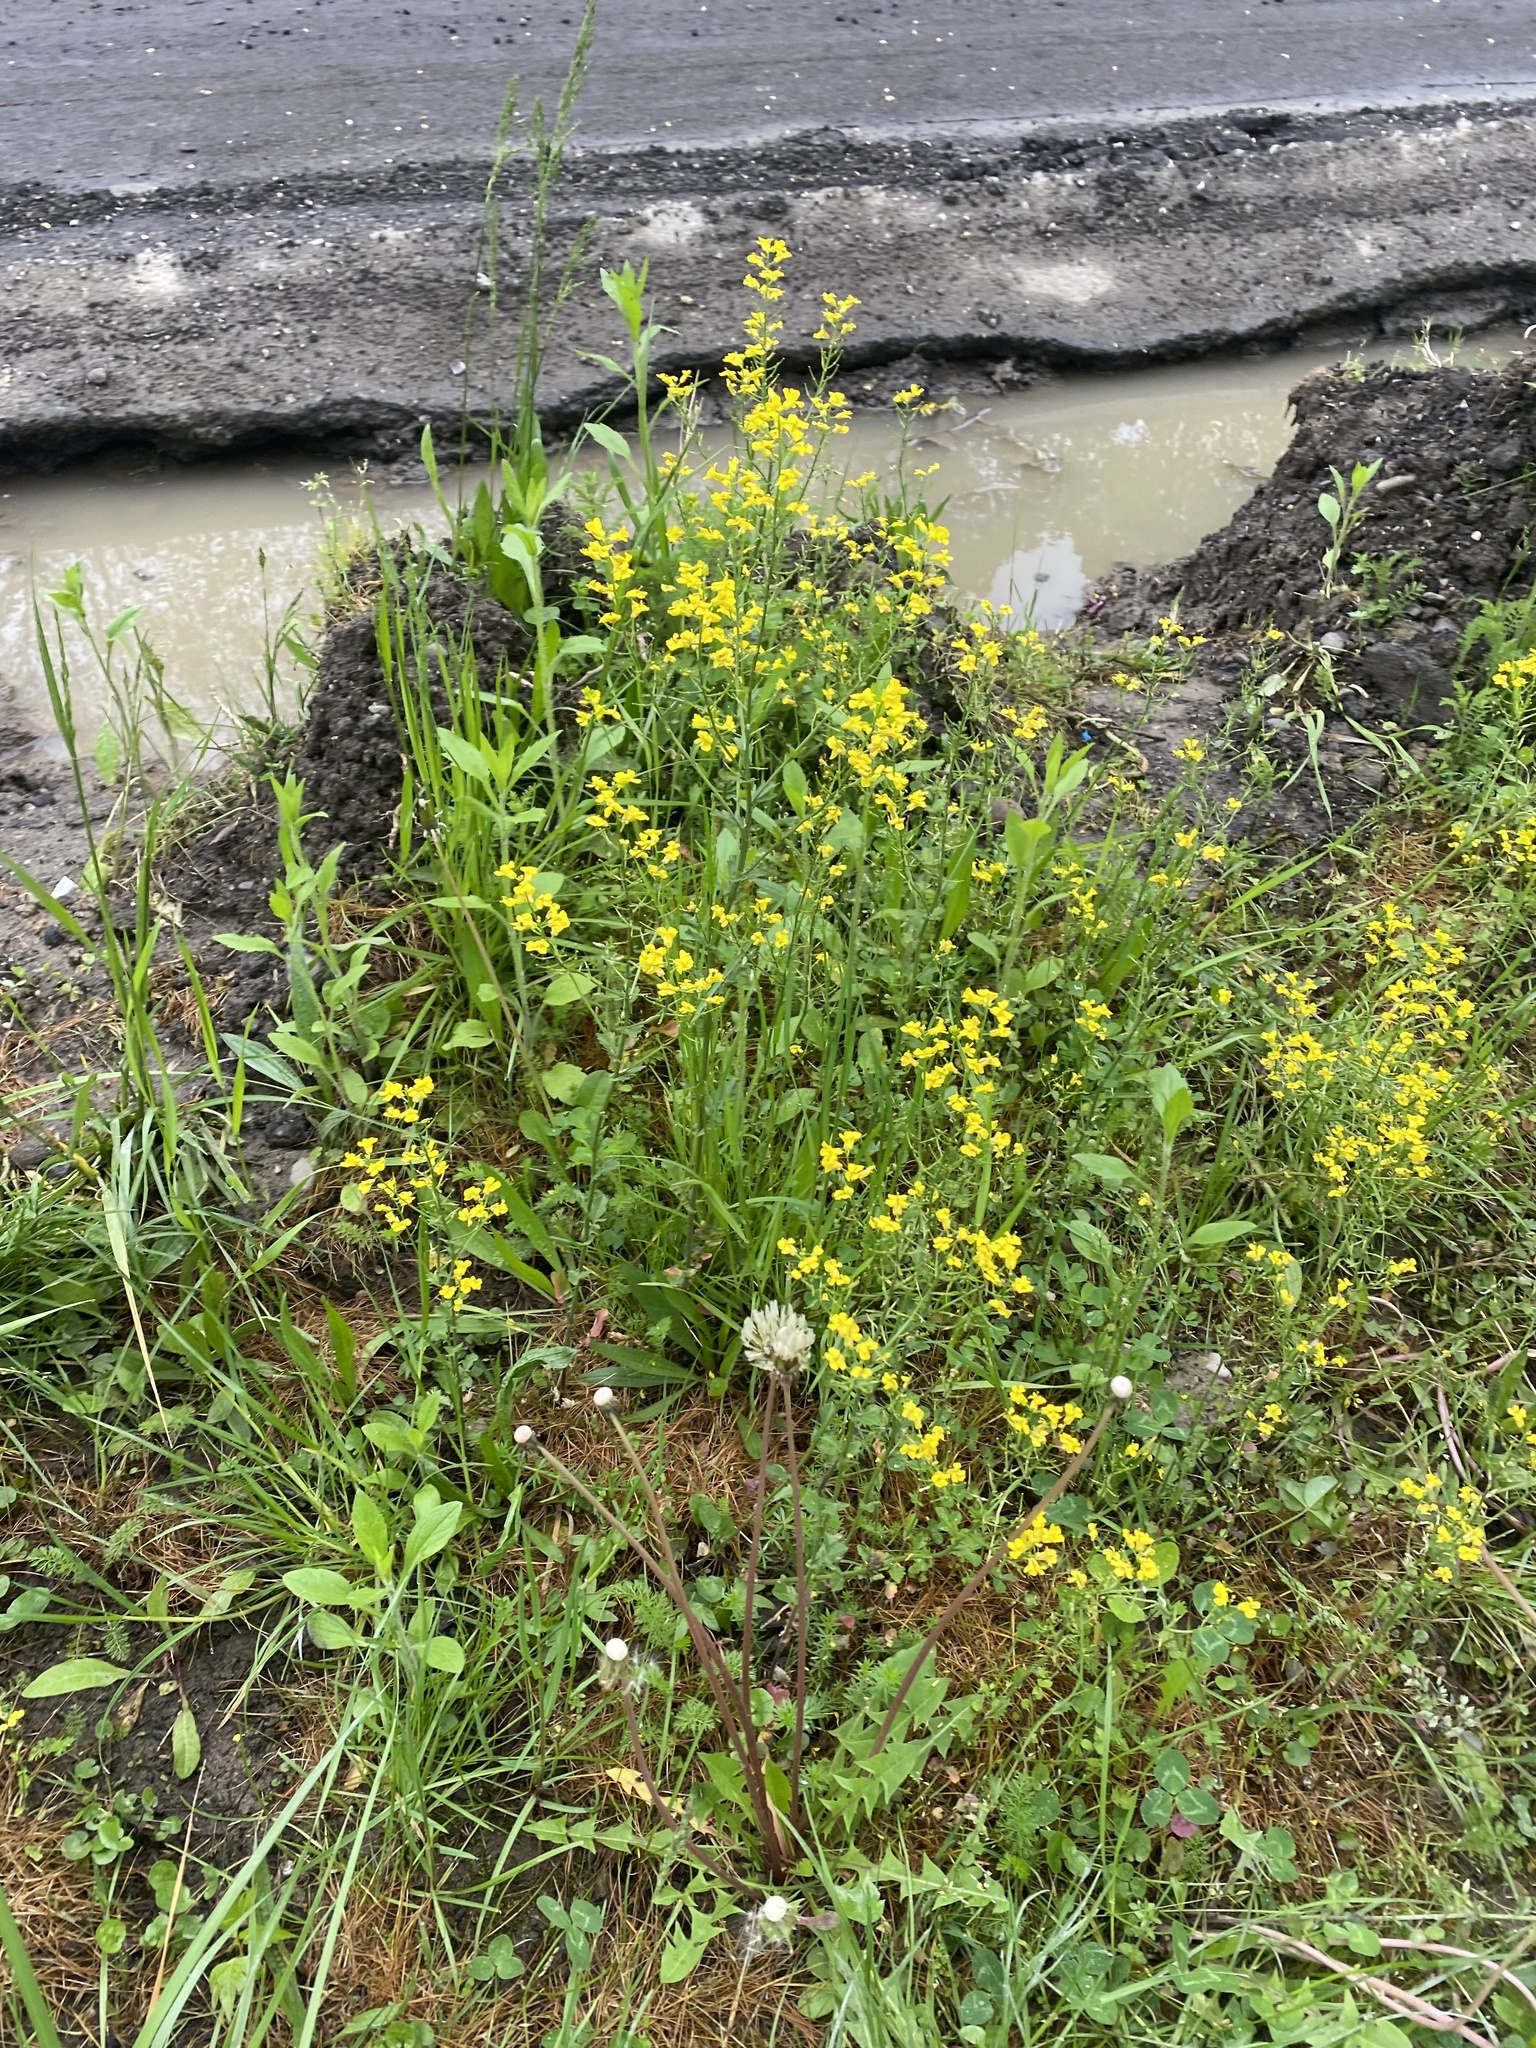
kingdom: Plantae
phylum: Tracheophyta
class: Magnoliopsida
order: Brassicales
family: Brassicaceae
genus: Barbarea
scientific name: Barbarea vulgaris
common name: Cressy-greens
